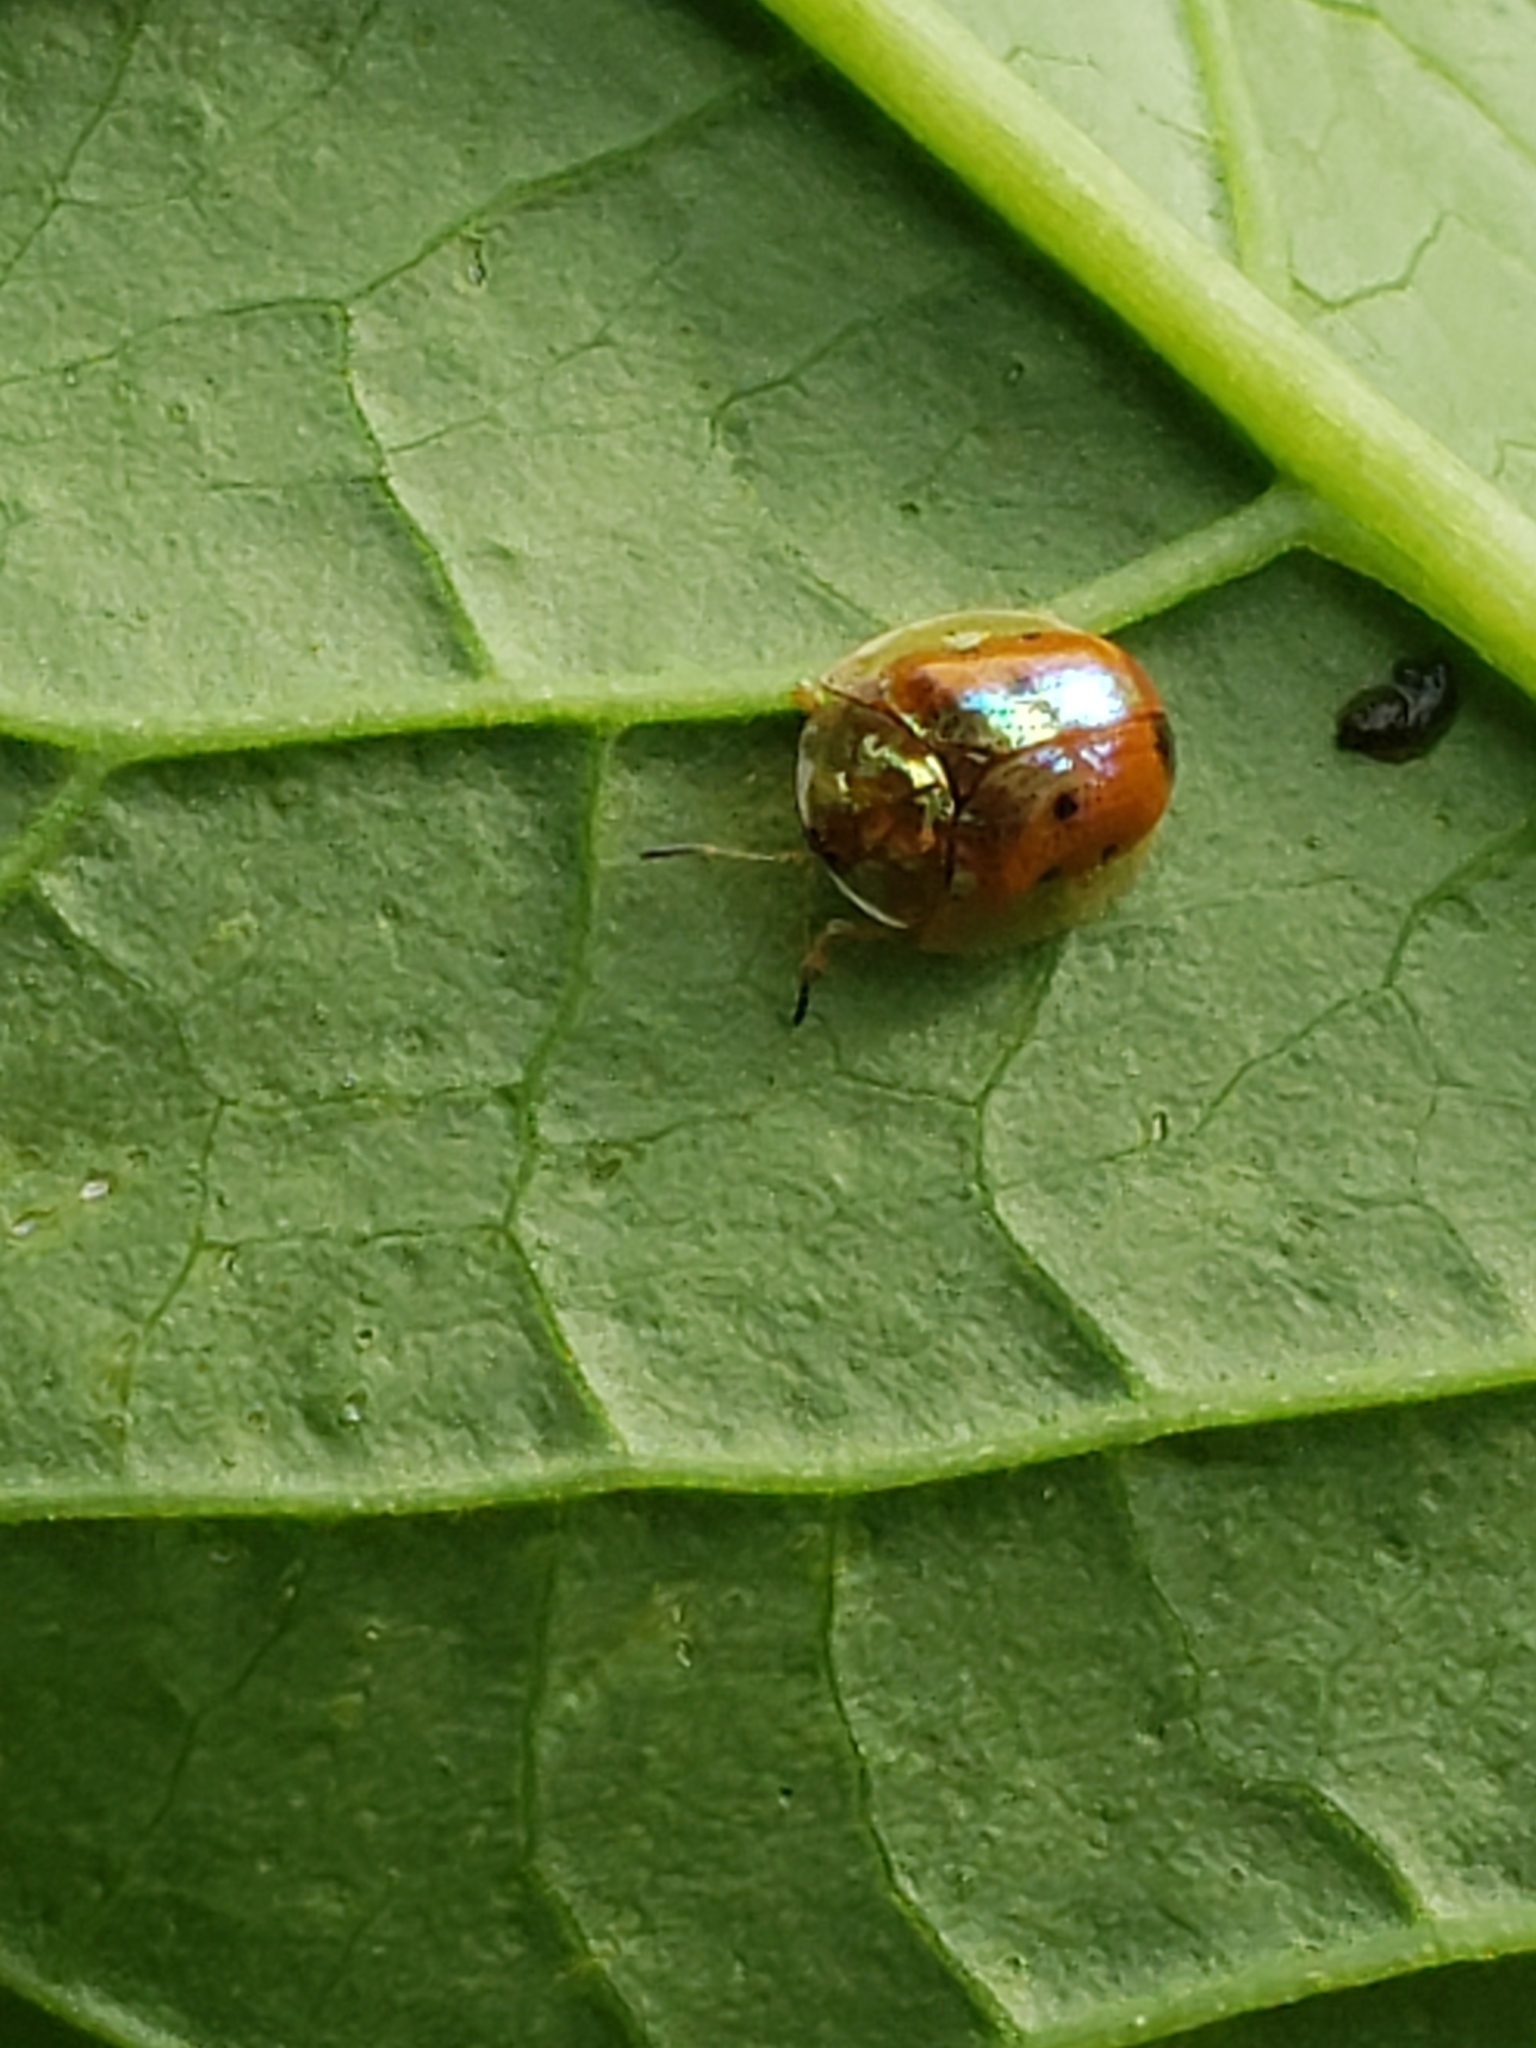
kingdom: Animalia
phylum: Arthropoda
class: Insecta
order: Coleoptera
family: Chrysomelidae
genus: Charidotella
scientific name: Charidotella sexpunctata
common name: Golden tortoise beetle
